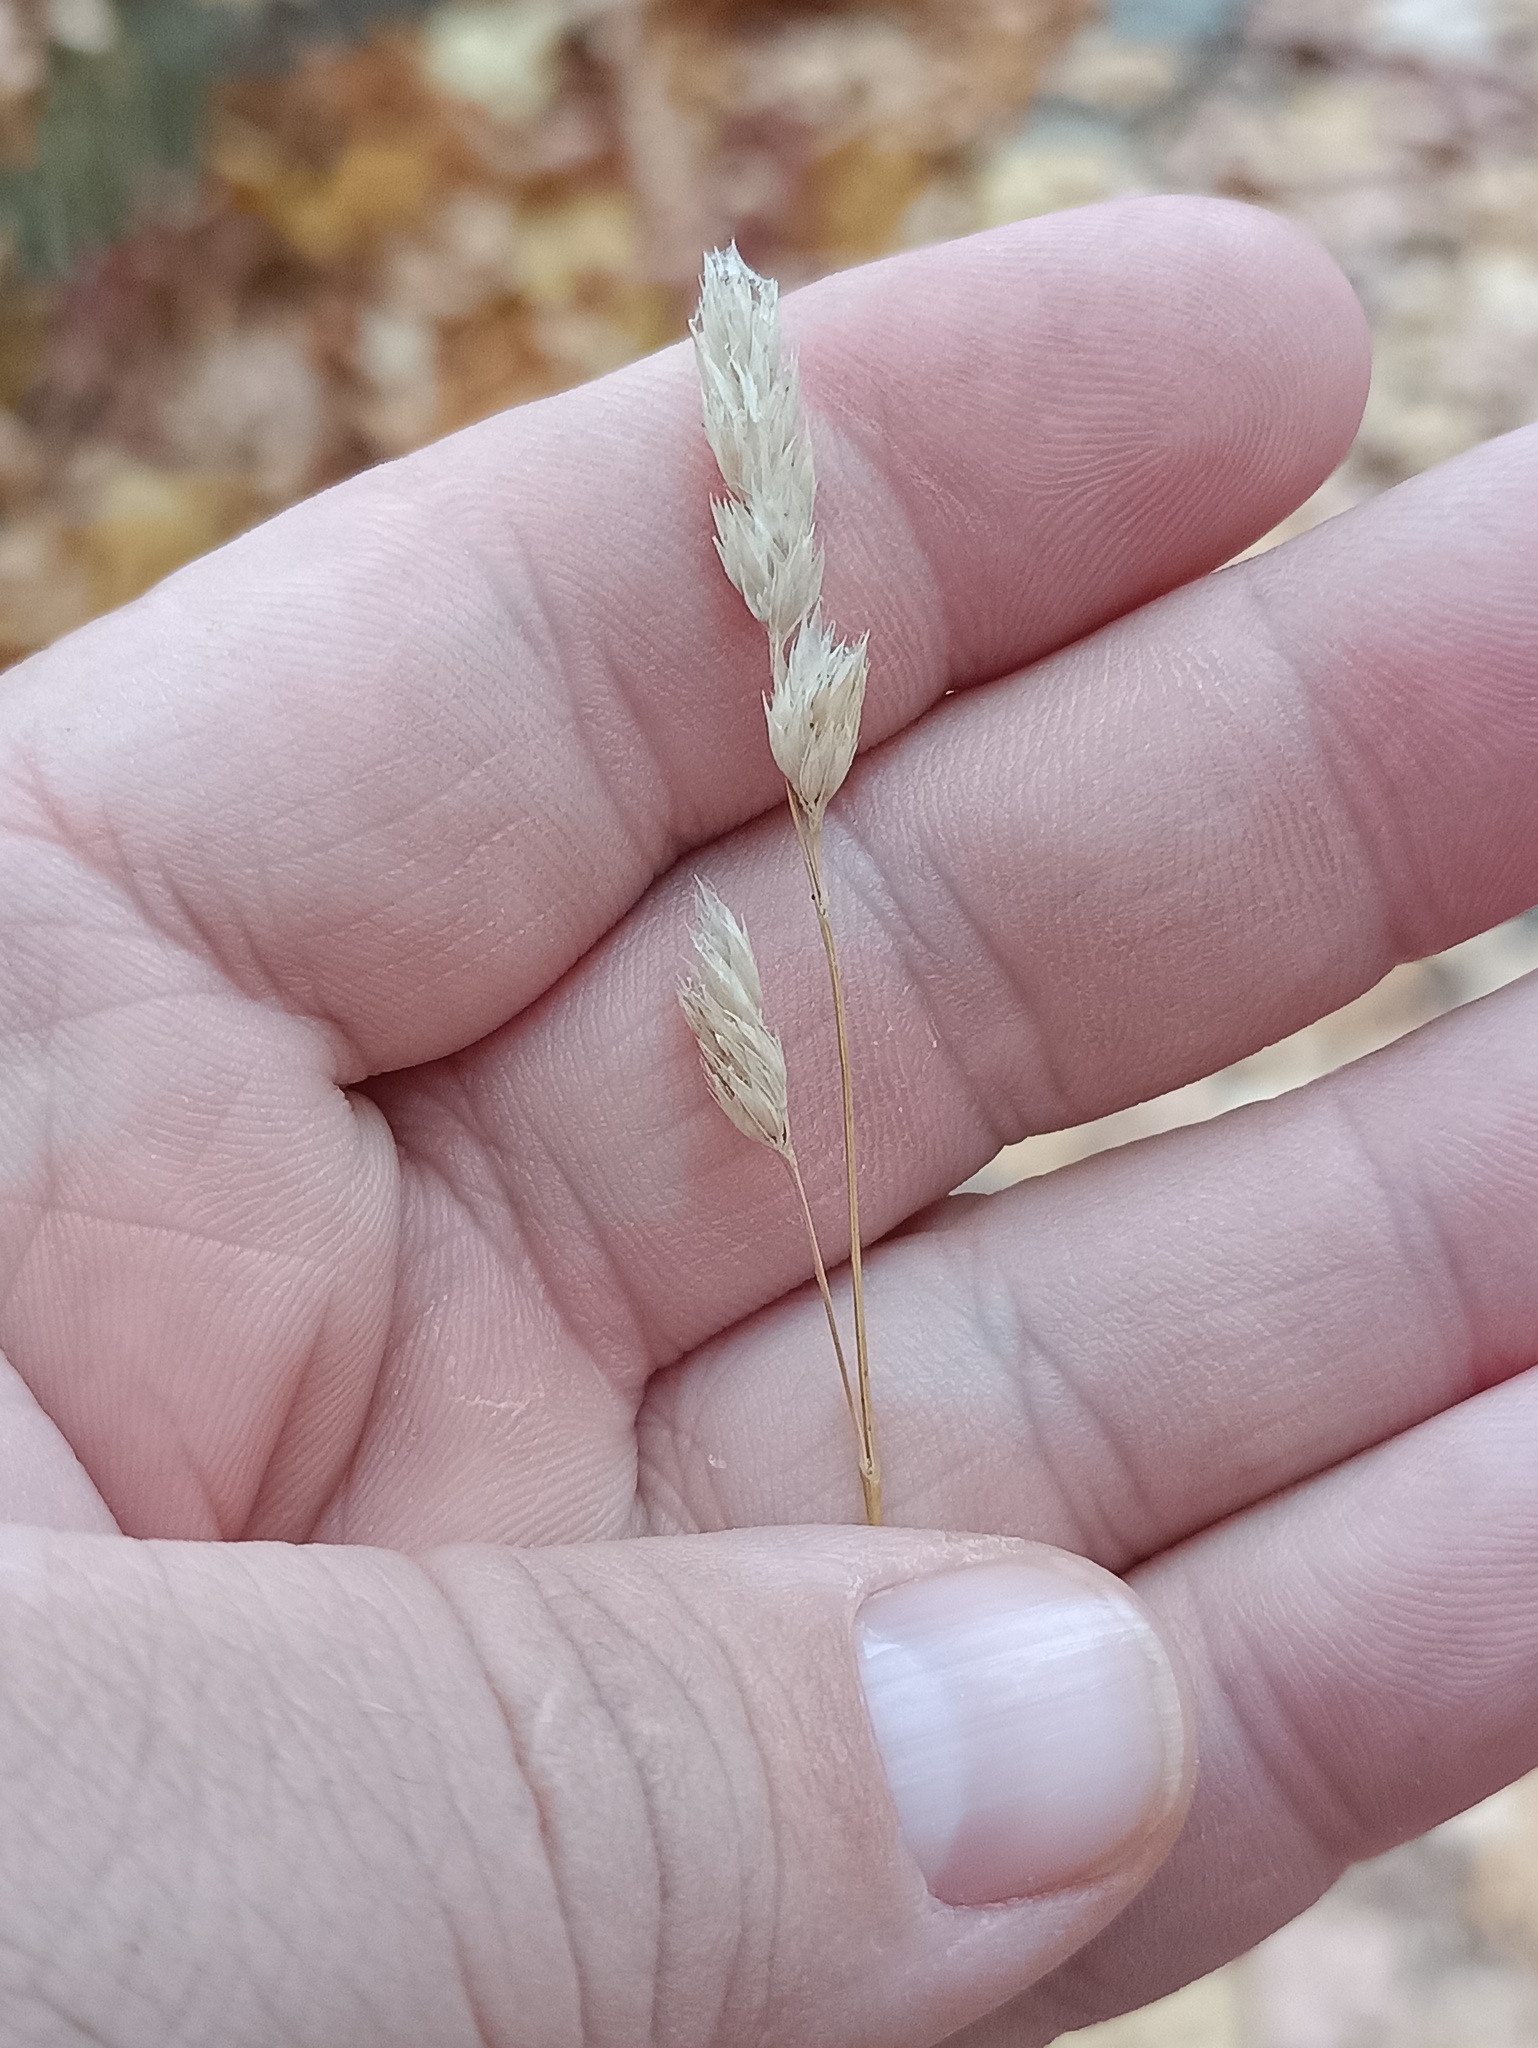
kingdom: Plantae
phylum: Tracheophyta
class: Liliopsida
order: Poales
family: Poaceae
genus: Dactylis
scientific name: Dactylis glomerata
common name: Orchardgrass
